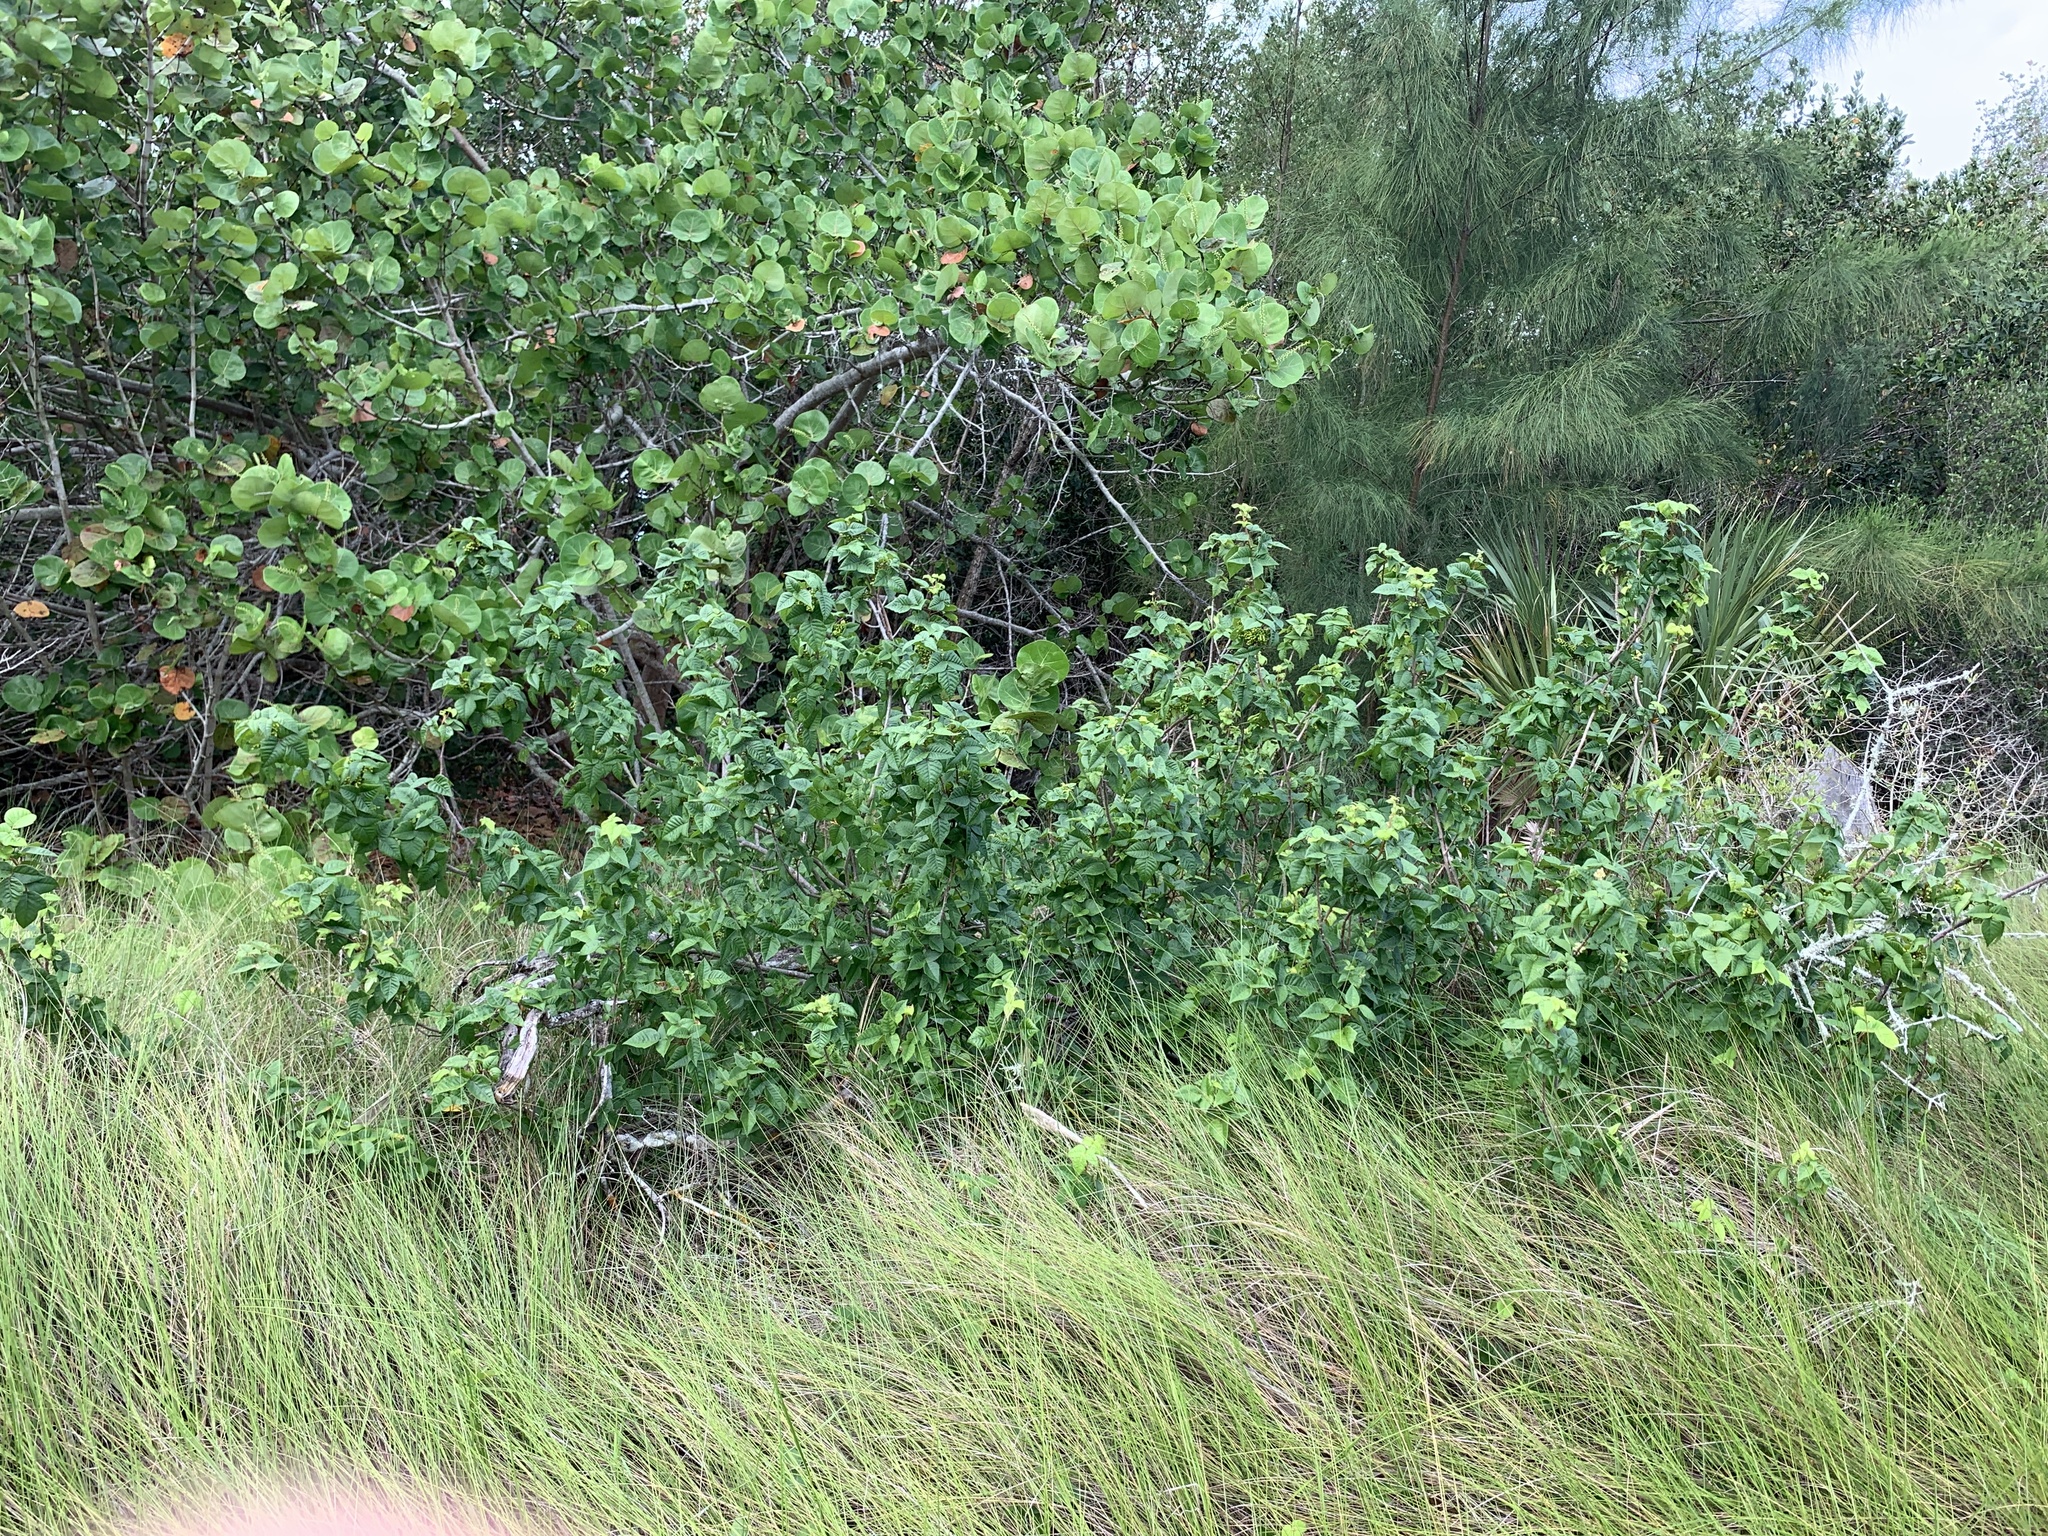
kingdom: Plantae
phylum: Tracheophyta
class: Magnoliopsida
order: Sapindales
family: Anacardiaceae
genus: Toxicodendron
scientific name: Toxicodendron radicans
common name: Poison ivy
